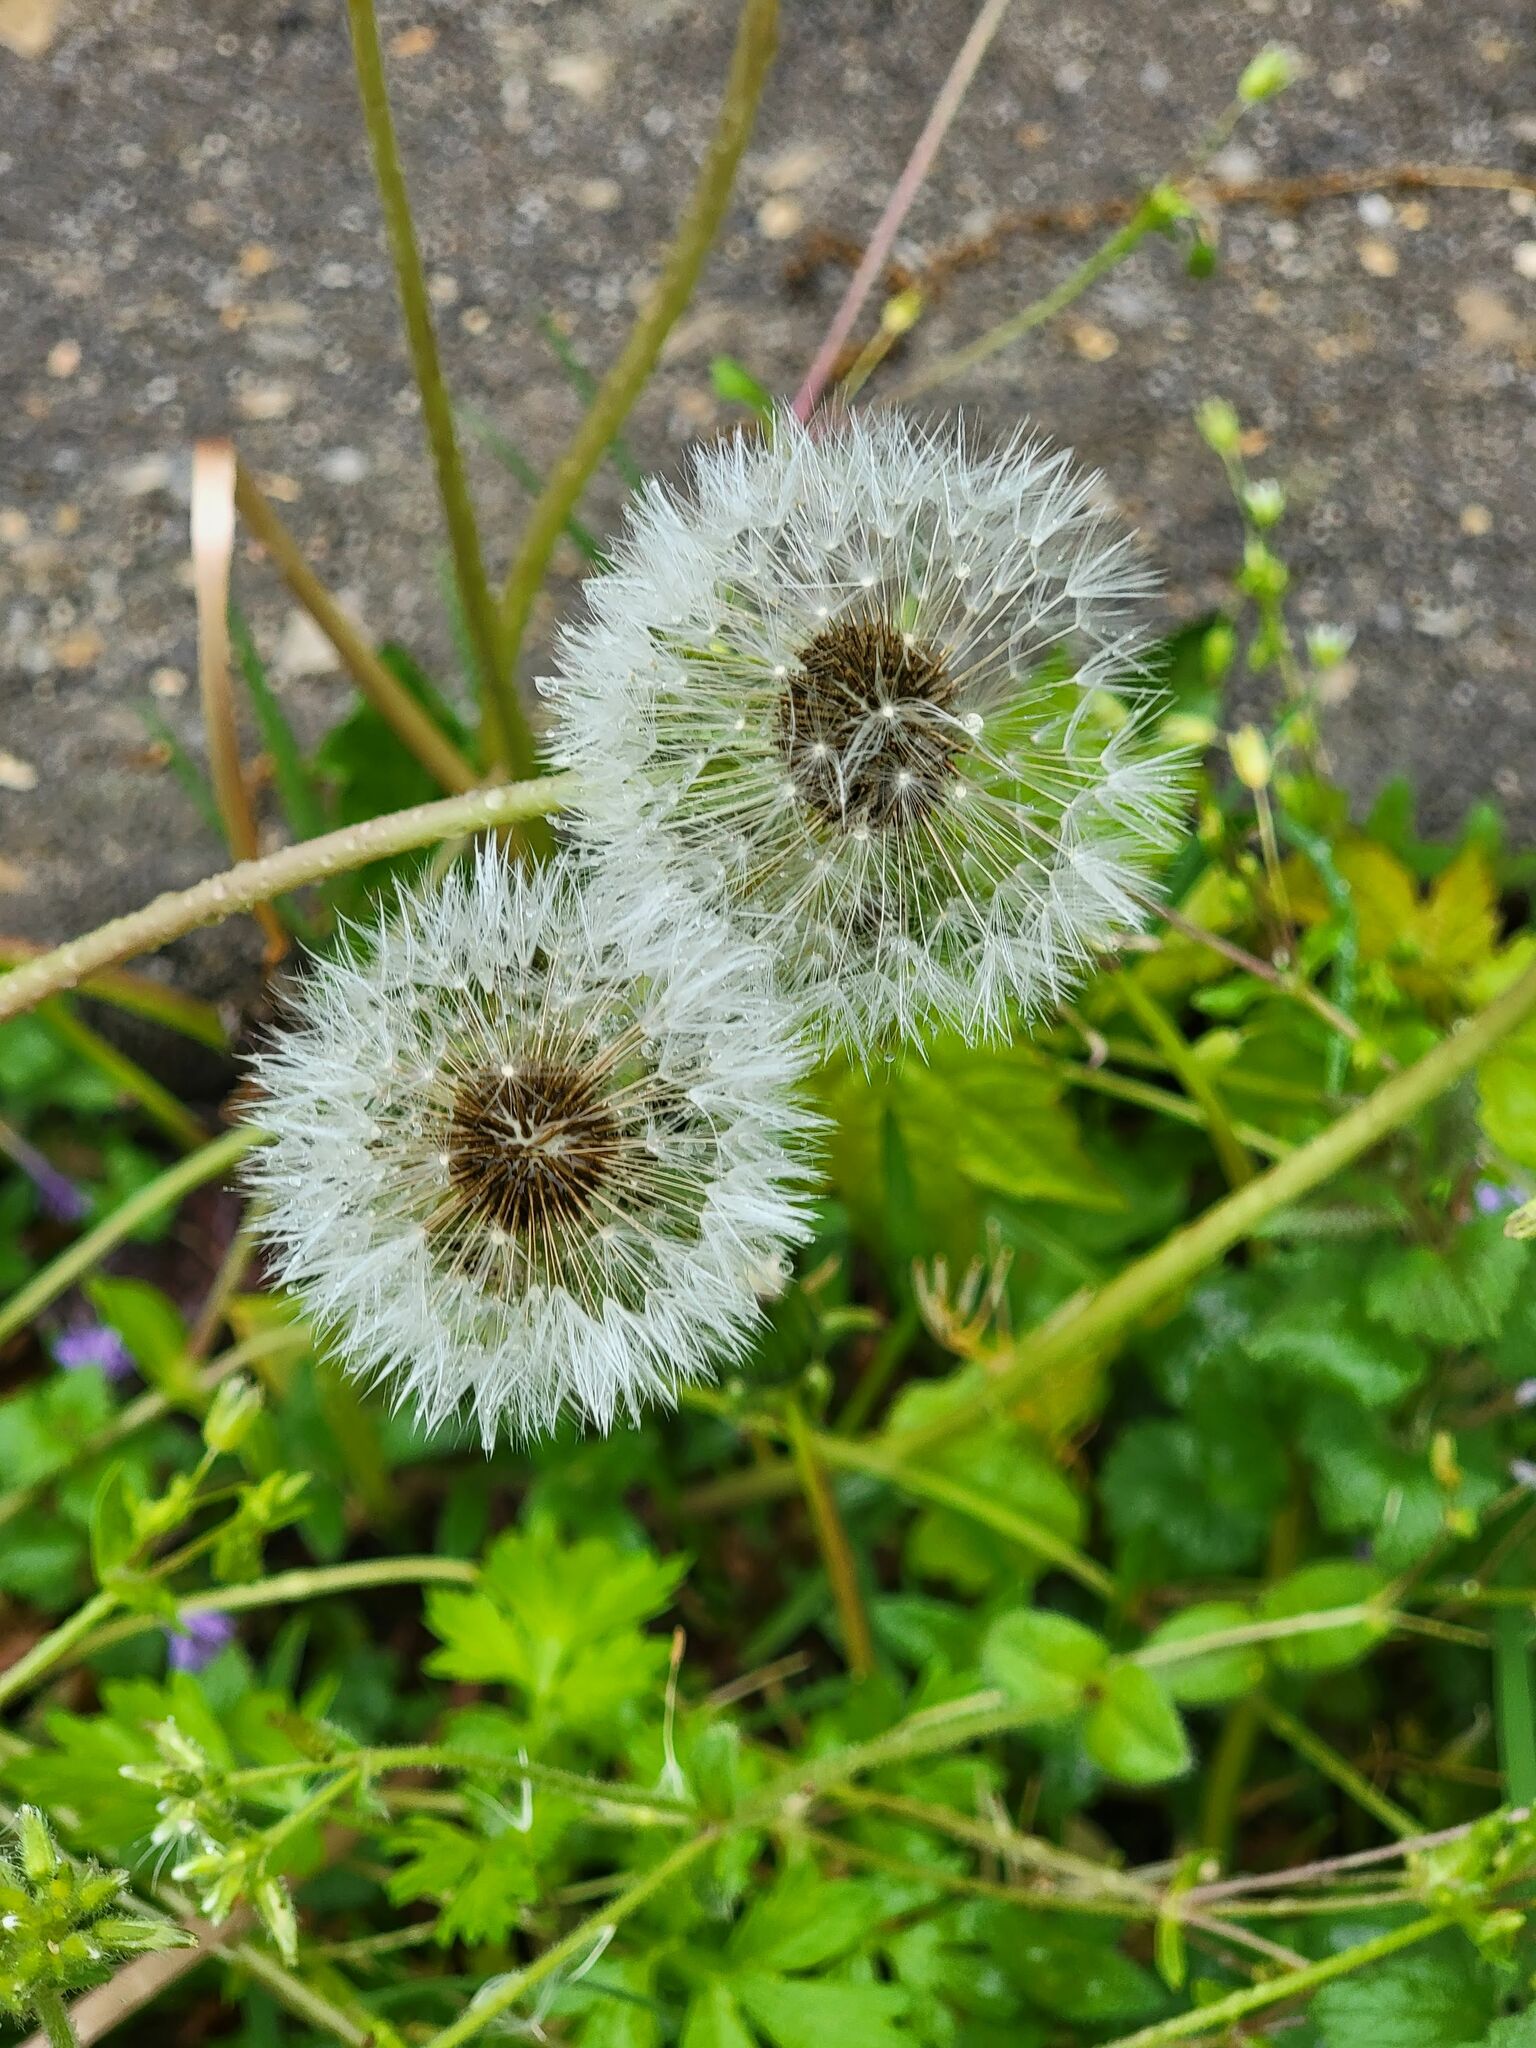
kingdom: Plantae
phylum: Tracheophyta
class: Magnoliopsida
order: Asterales
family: Asteraceae
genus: Taraxacum
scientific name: Taraxacum officinale
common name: Common dandelion
